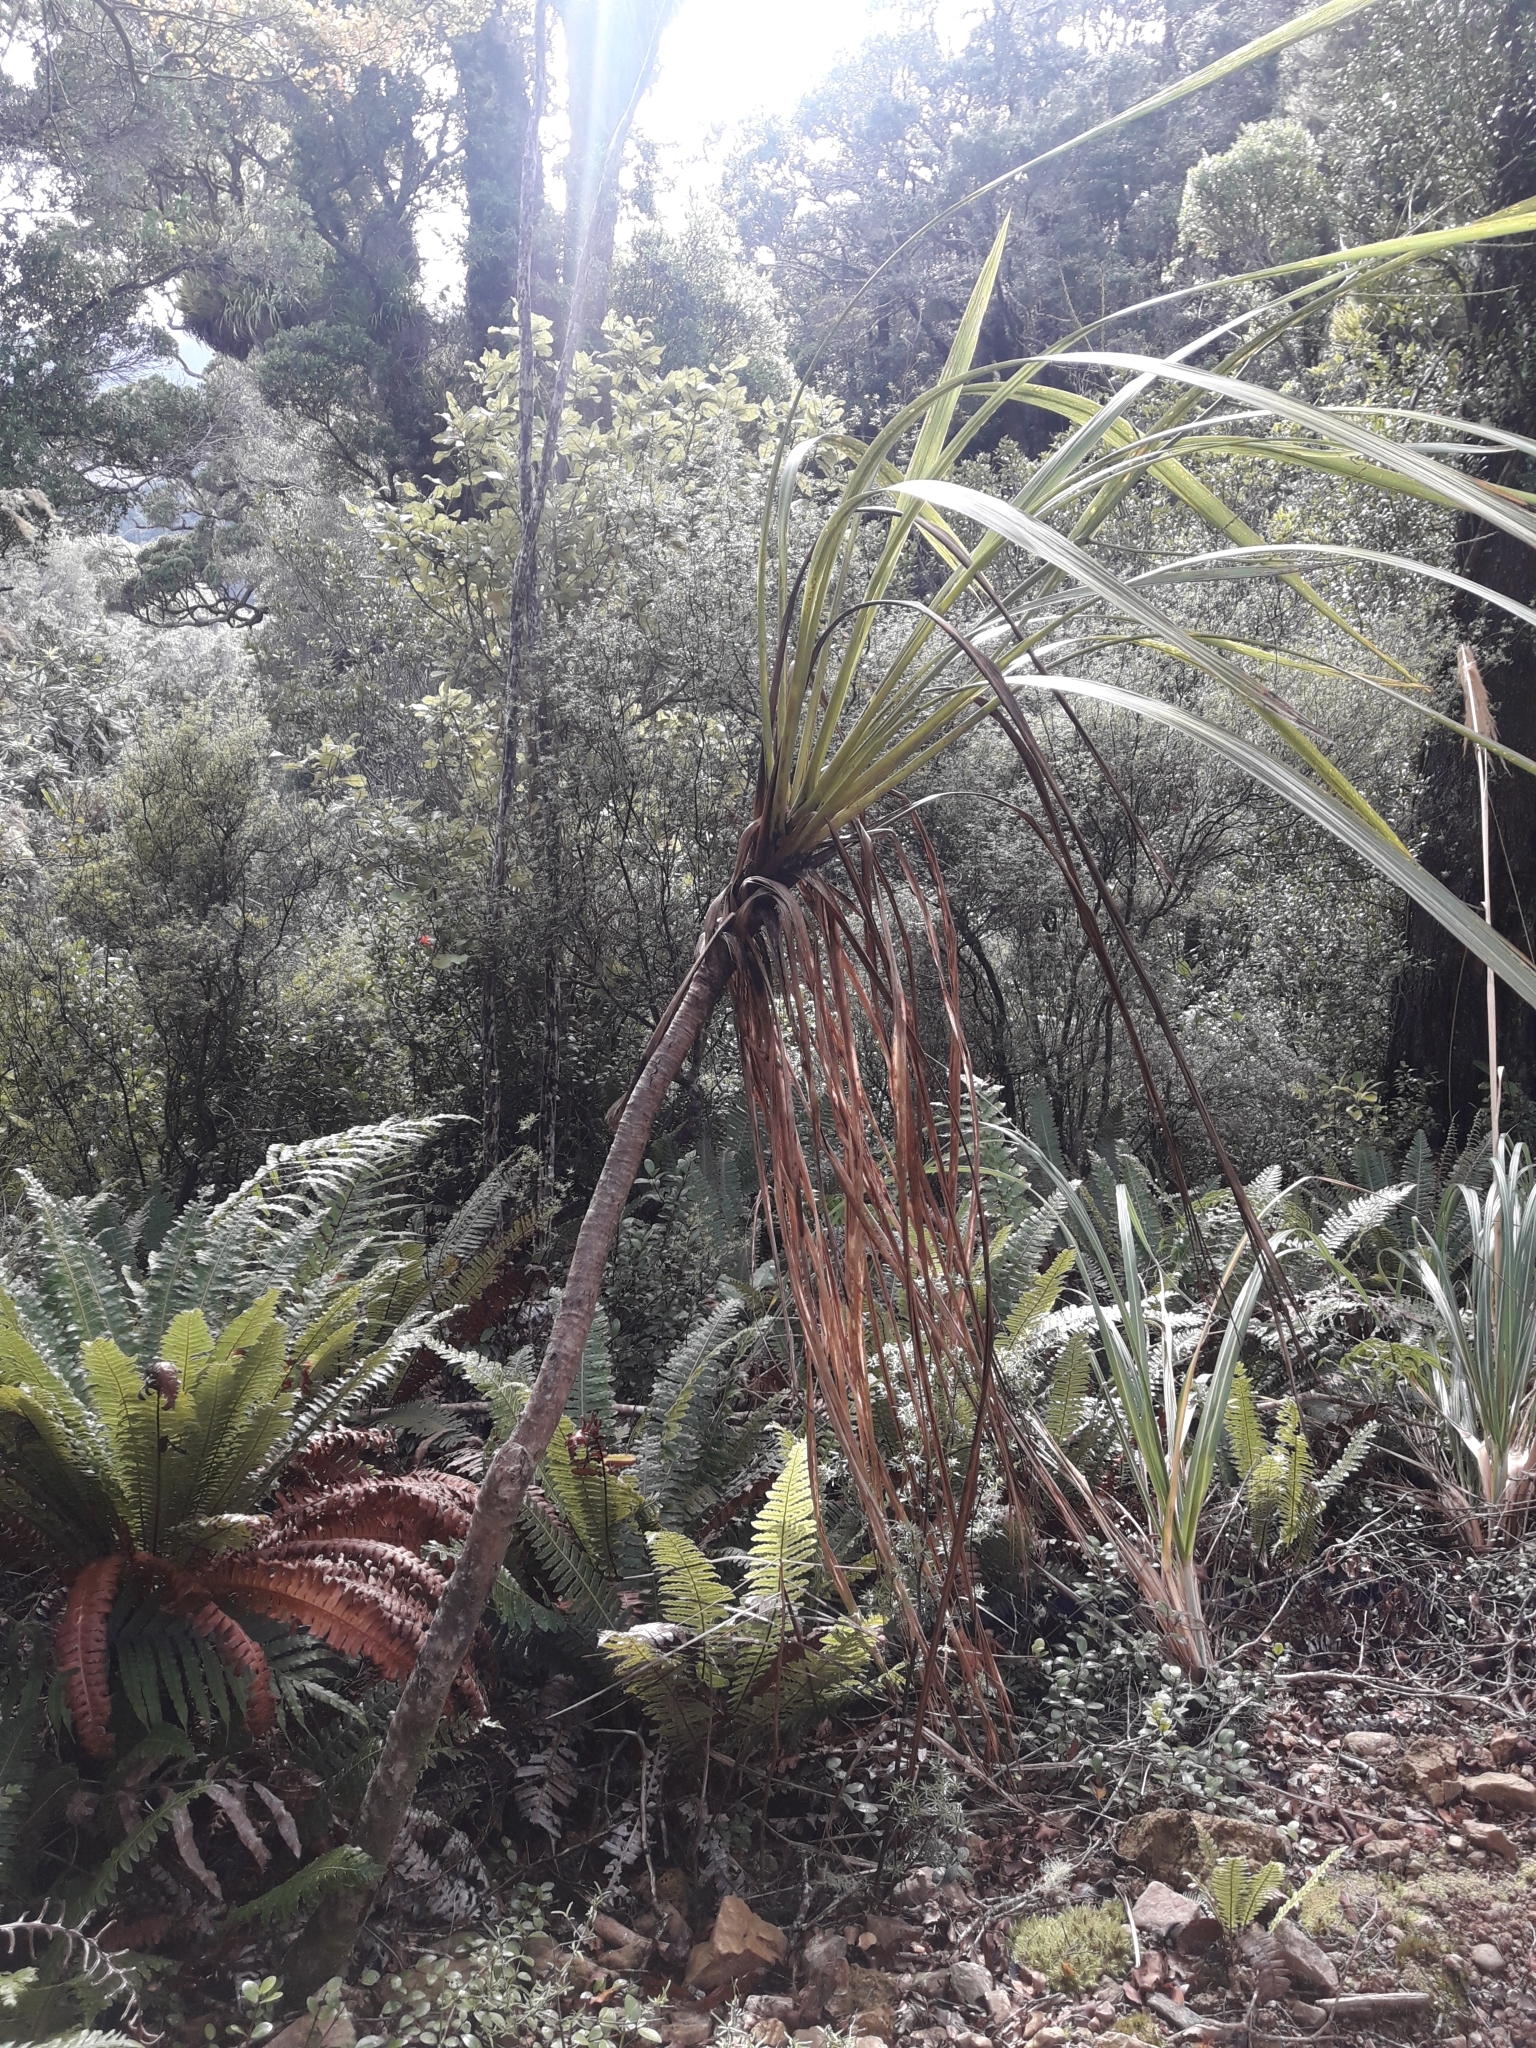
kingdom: Plantae
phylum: Tracheophyta
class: Liliopsida
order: Asparagales
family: Asparagaceae
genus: Cordyline
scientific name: Cordyline banksii
